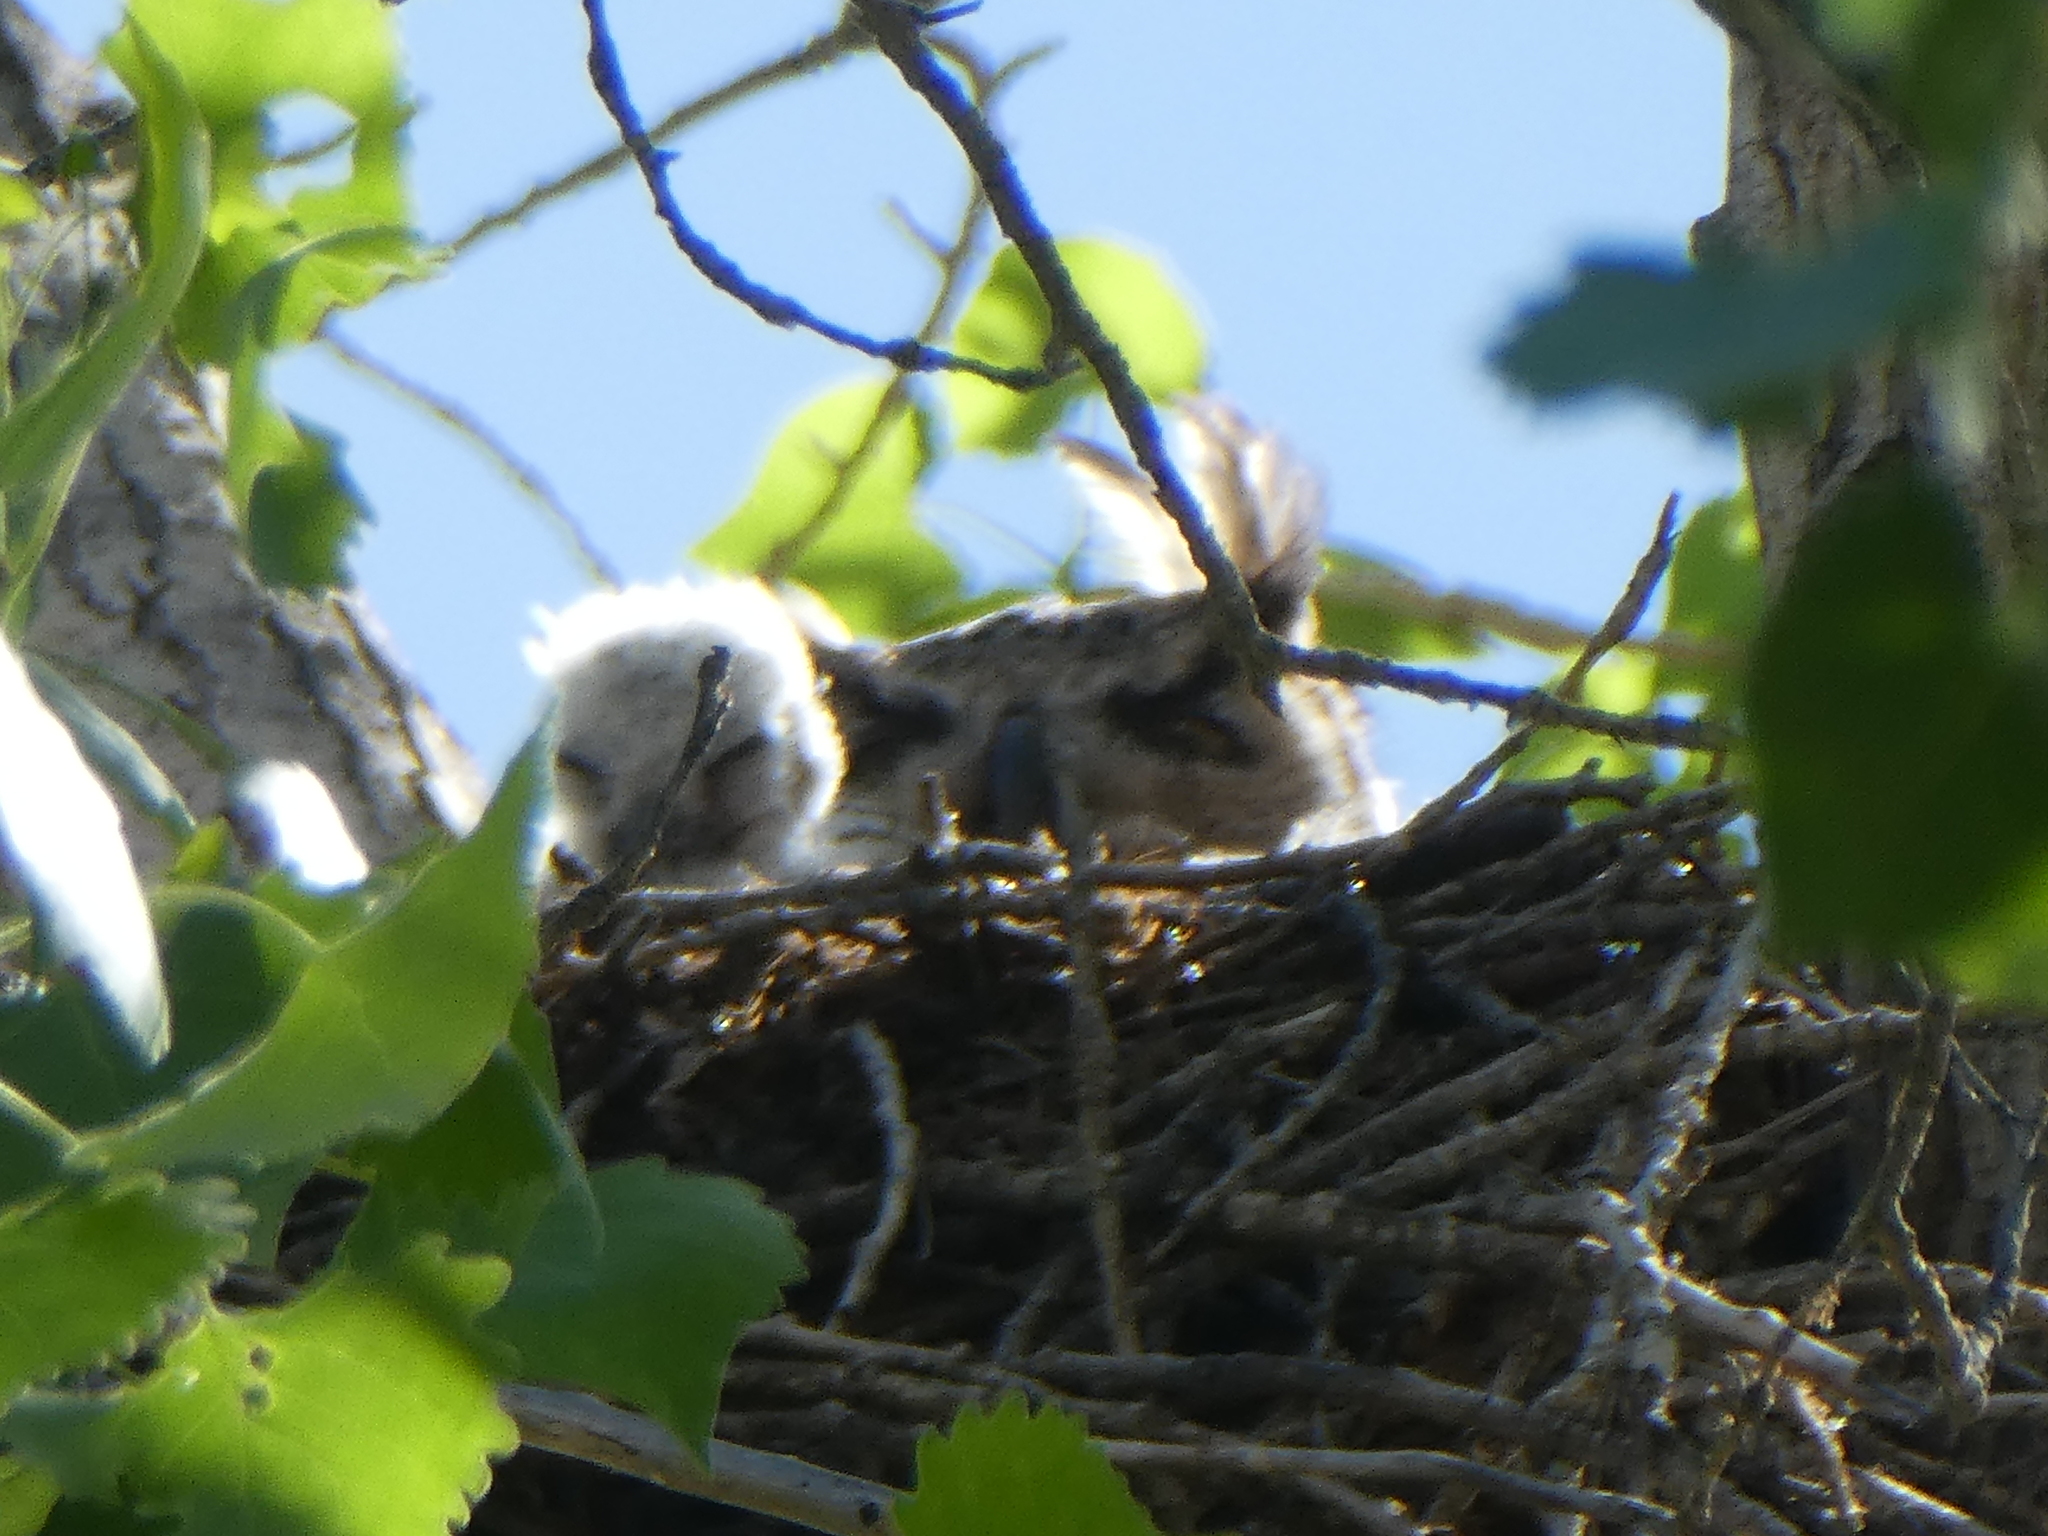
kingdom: Animalia
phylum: Chordata
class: Aves
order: Strigiformes
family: Strigidae
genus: Bubo
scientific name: Bubo virginianus
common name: Great horned owl
